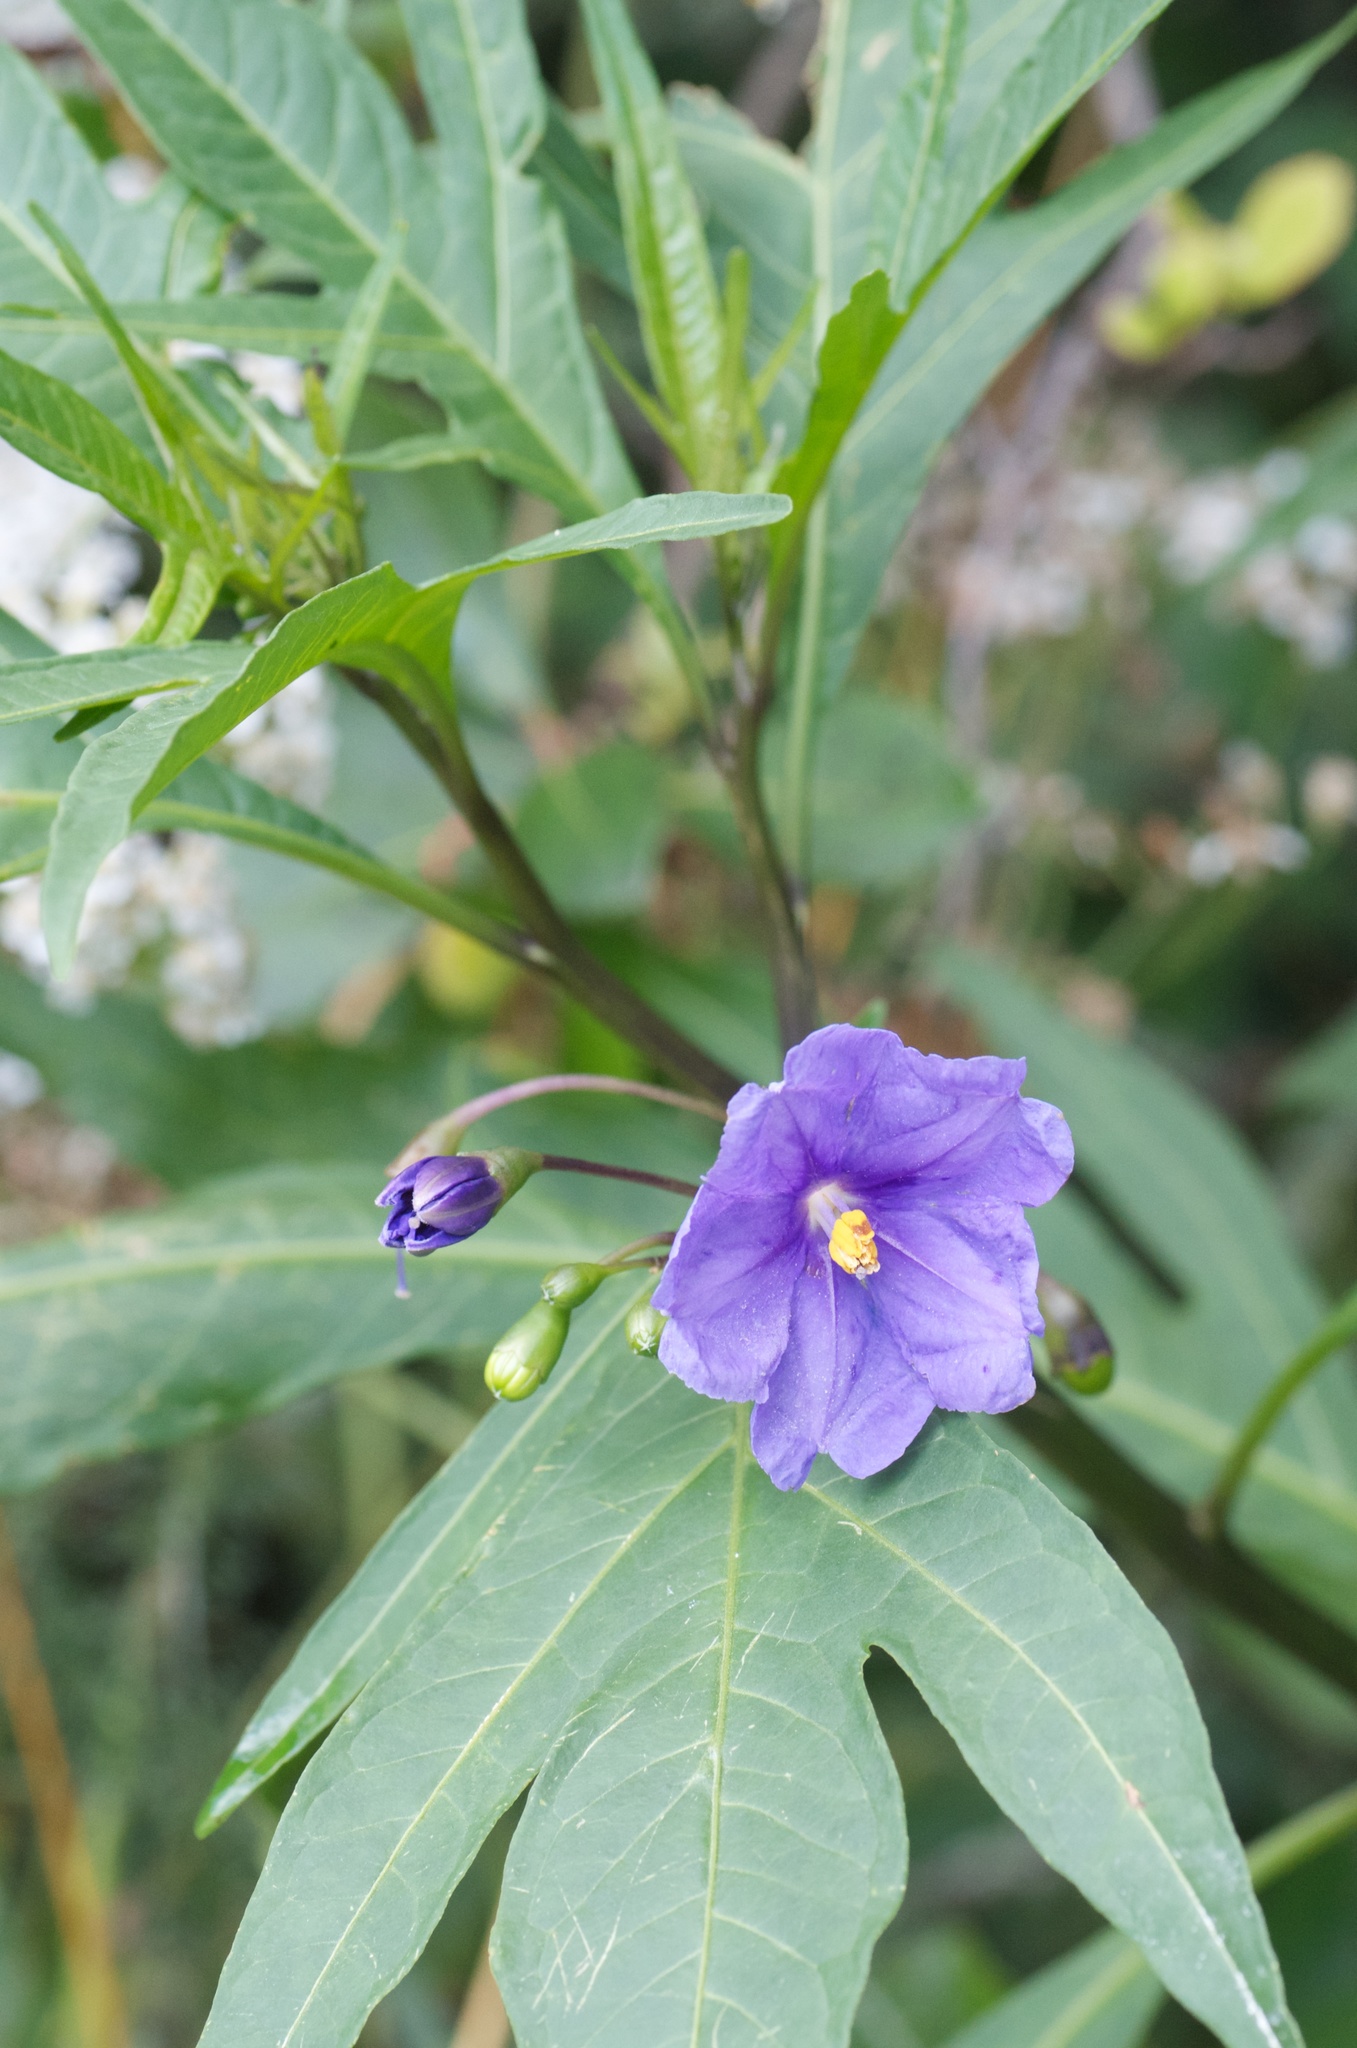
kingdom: Plantae
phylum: Tracheophyta
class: Magnoliopsida
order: Solanales
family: Solanaceae
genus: Solanum
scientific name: Solanum laciniatum
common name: Kangaroo-apple
